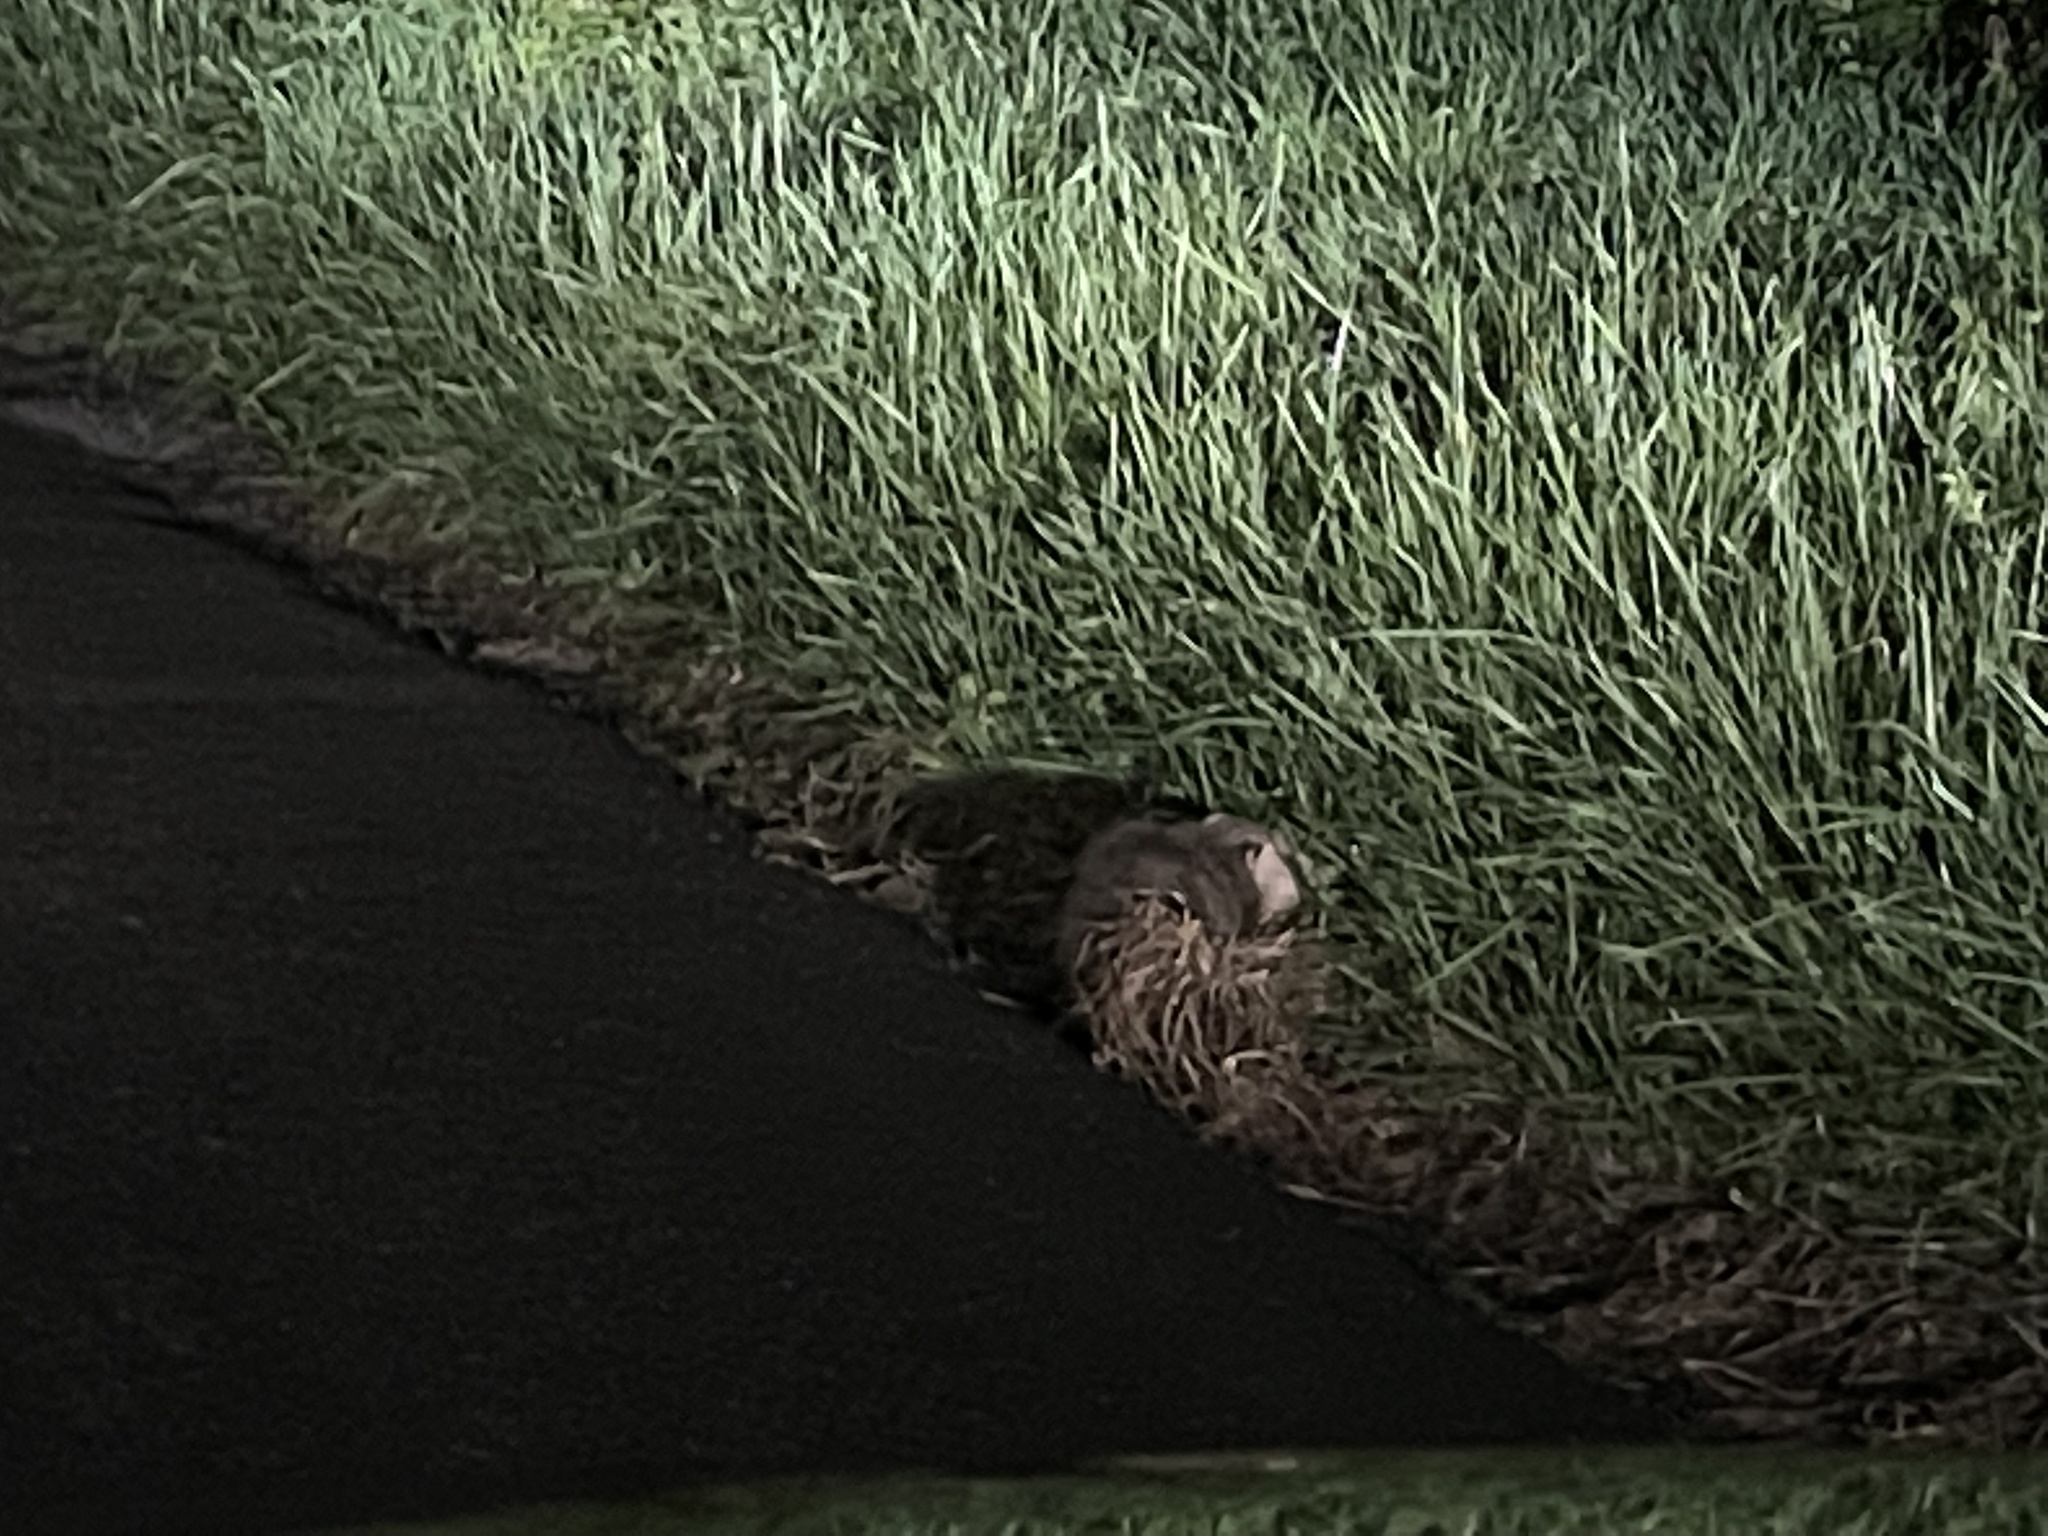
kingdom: Animalia
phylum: Chordata
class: Mammalia
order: Didelphimorphia
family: Didelphidae
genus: Didelphis
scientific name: Didelphis virginiana
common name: Virginia opossum
